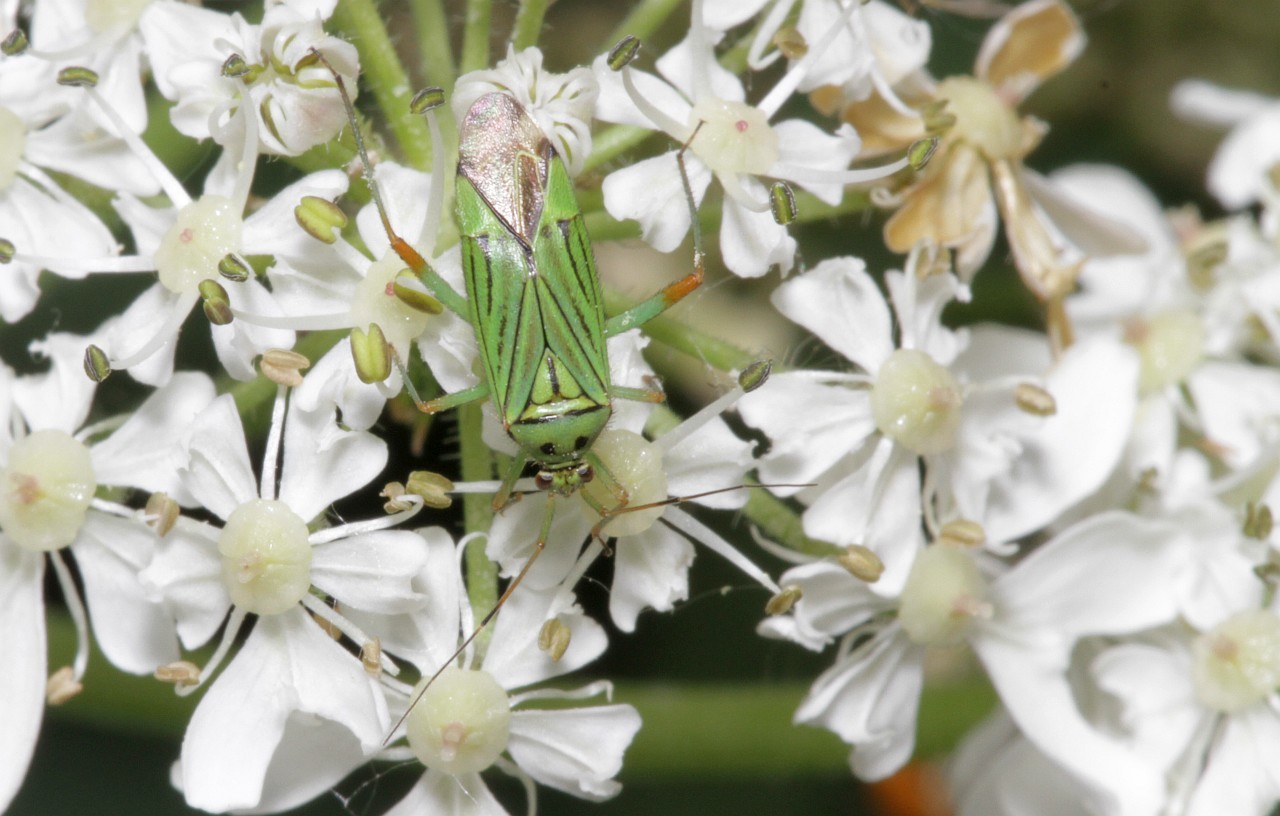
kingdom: Animalia
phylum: Arthropoda
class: Insecta
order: Hemiptera
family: Miridae
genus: Mermitelocerus
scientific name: Mermitelocerus schmidtii
